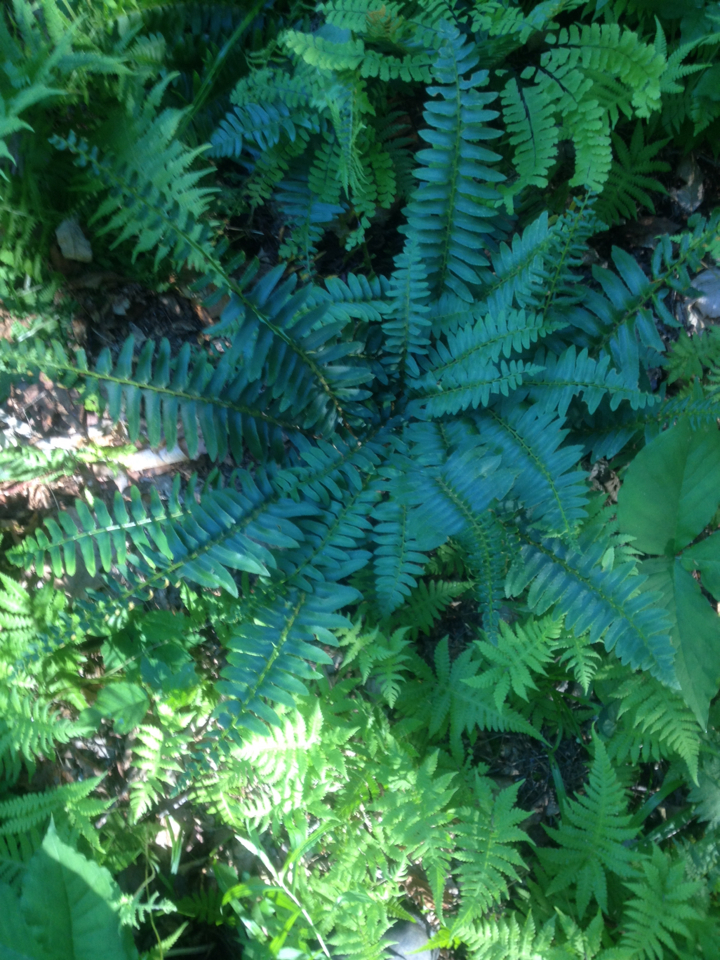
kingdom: Plantae
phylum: Tracheophyta
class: Polypodiopsida
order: Polypodiales
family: Dryopteridaceae
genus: Polystichum
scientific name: Polystichum acrostichoides
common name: Christmas fern
